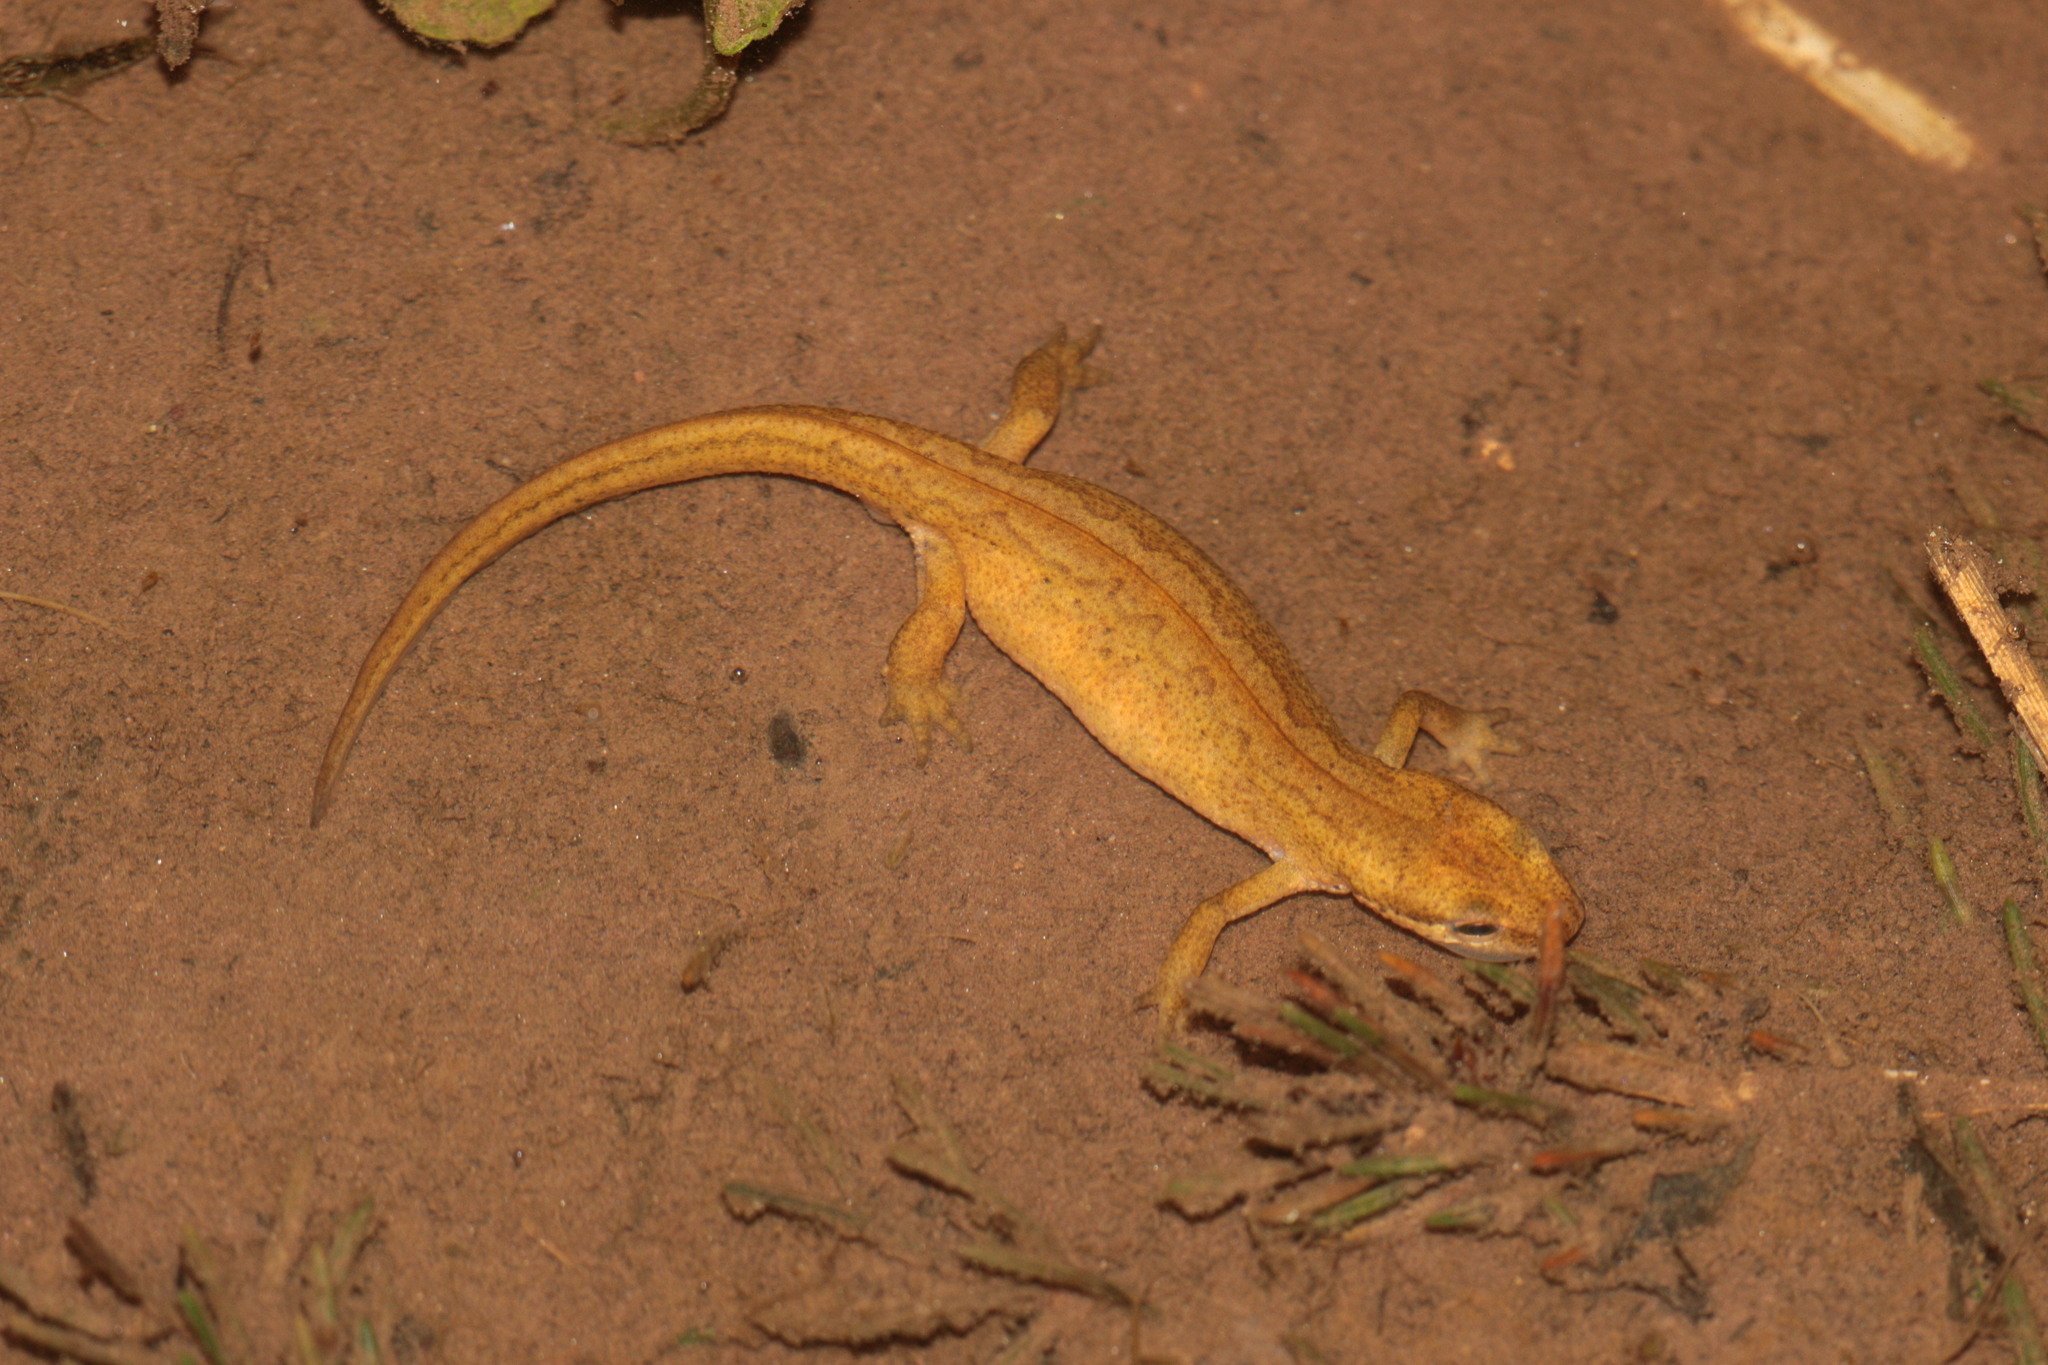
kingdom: Animalia
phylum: Chordata
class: Amphibia
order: Caudata
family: Salamandridae
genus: Lissotriton
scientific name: Lissotriton vulgaris
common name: Smooth newt
